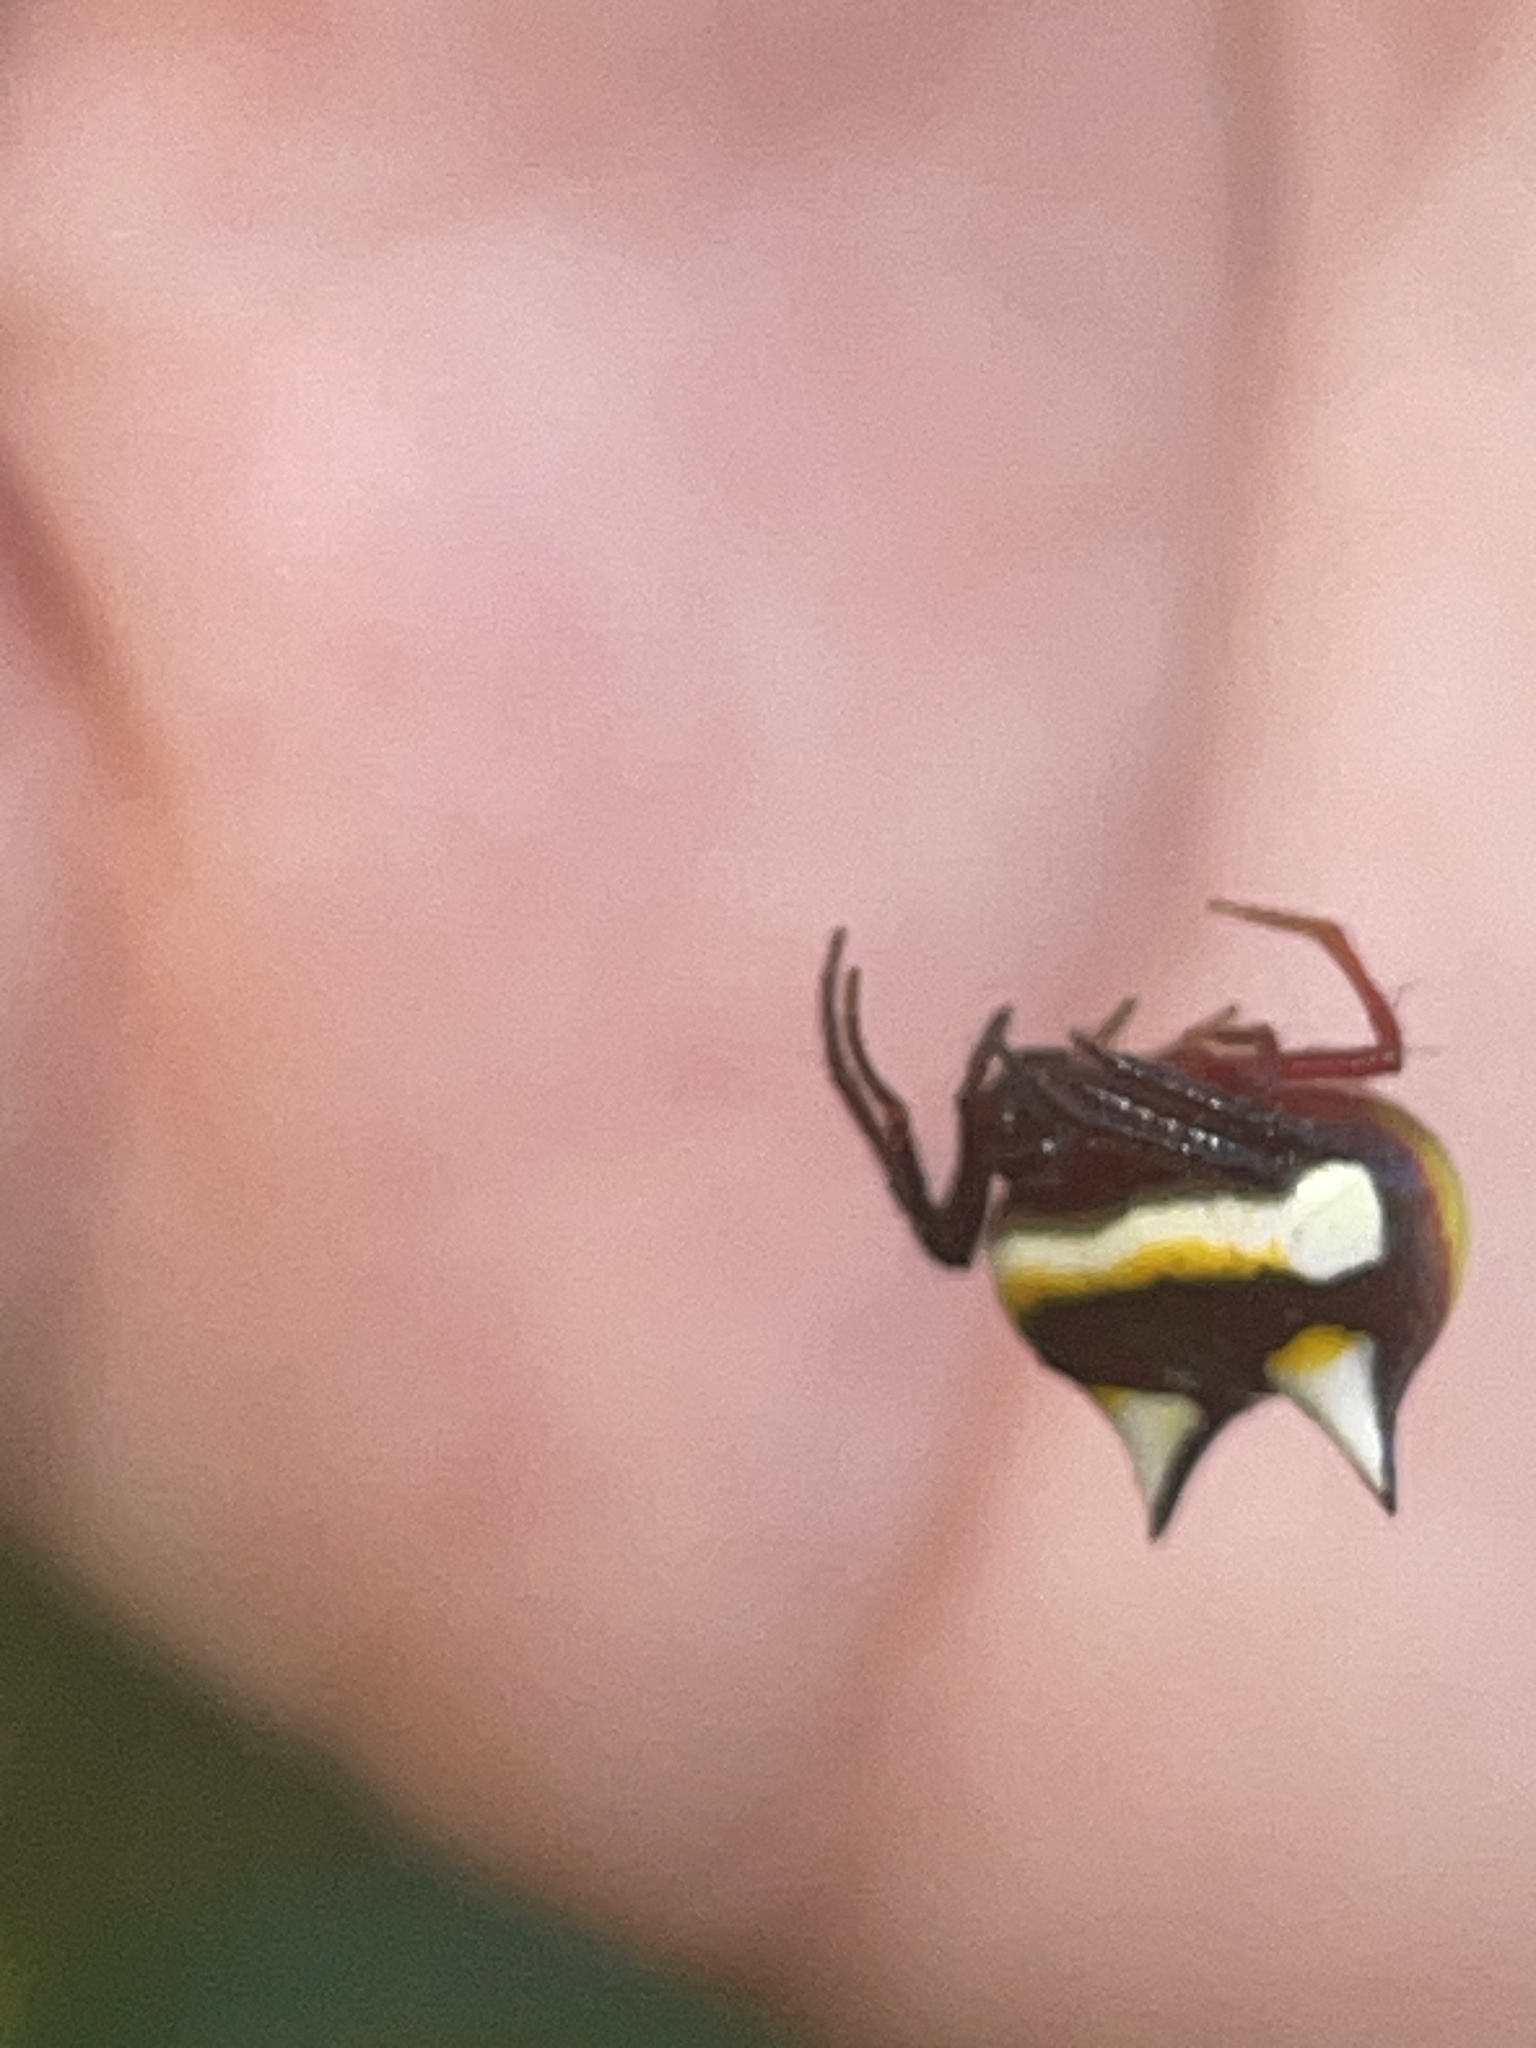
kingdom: Animalia
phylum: Arthropoda
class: Arachnida
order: Araneae
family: Araneidae
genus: Poecilopachys
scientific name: Poecilopachys australasia
